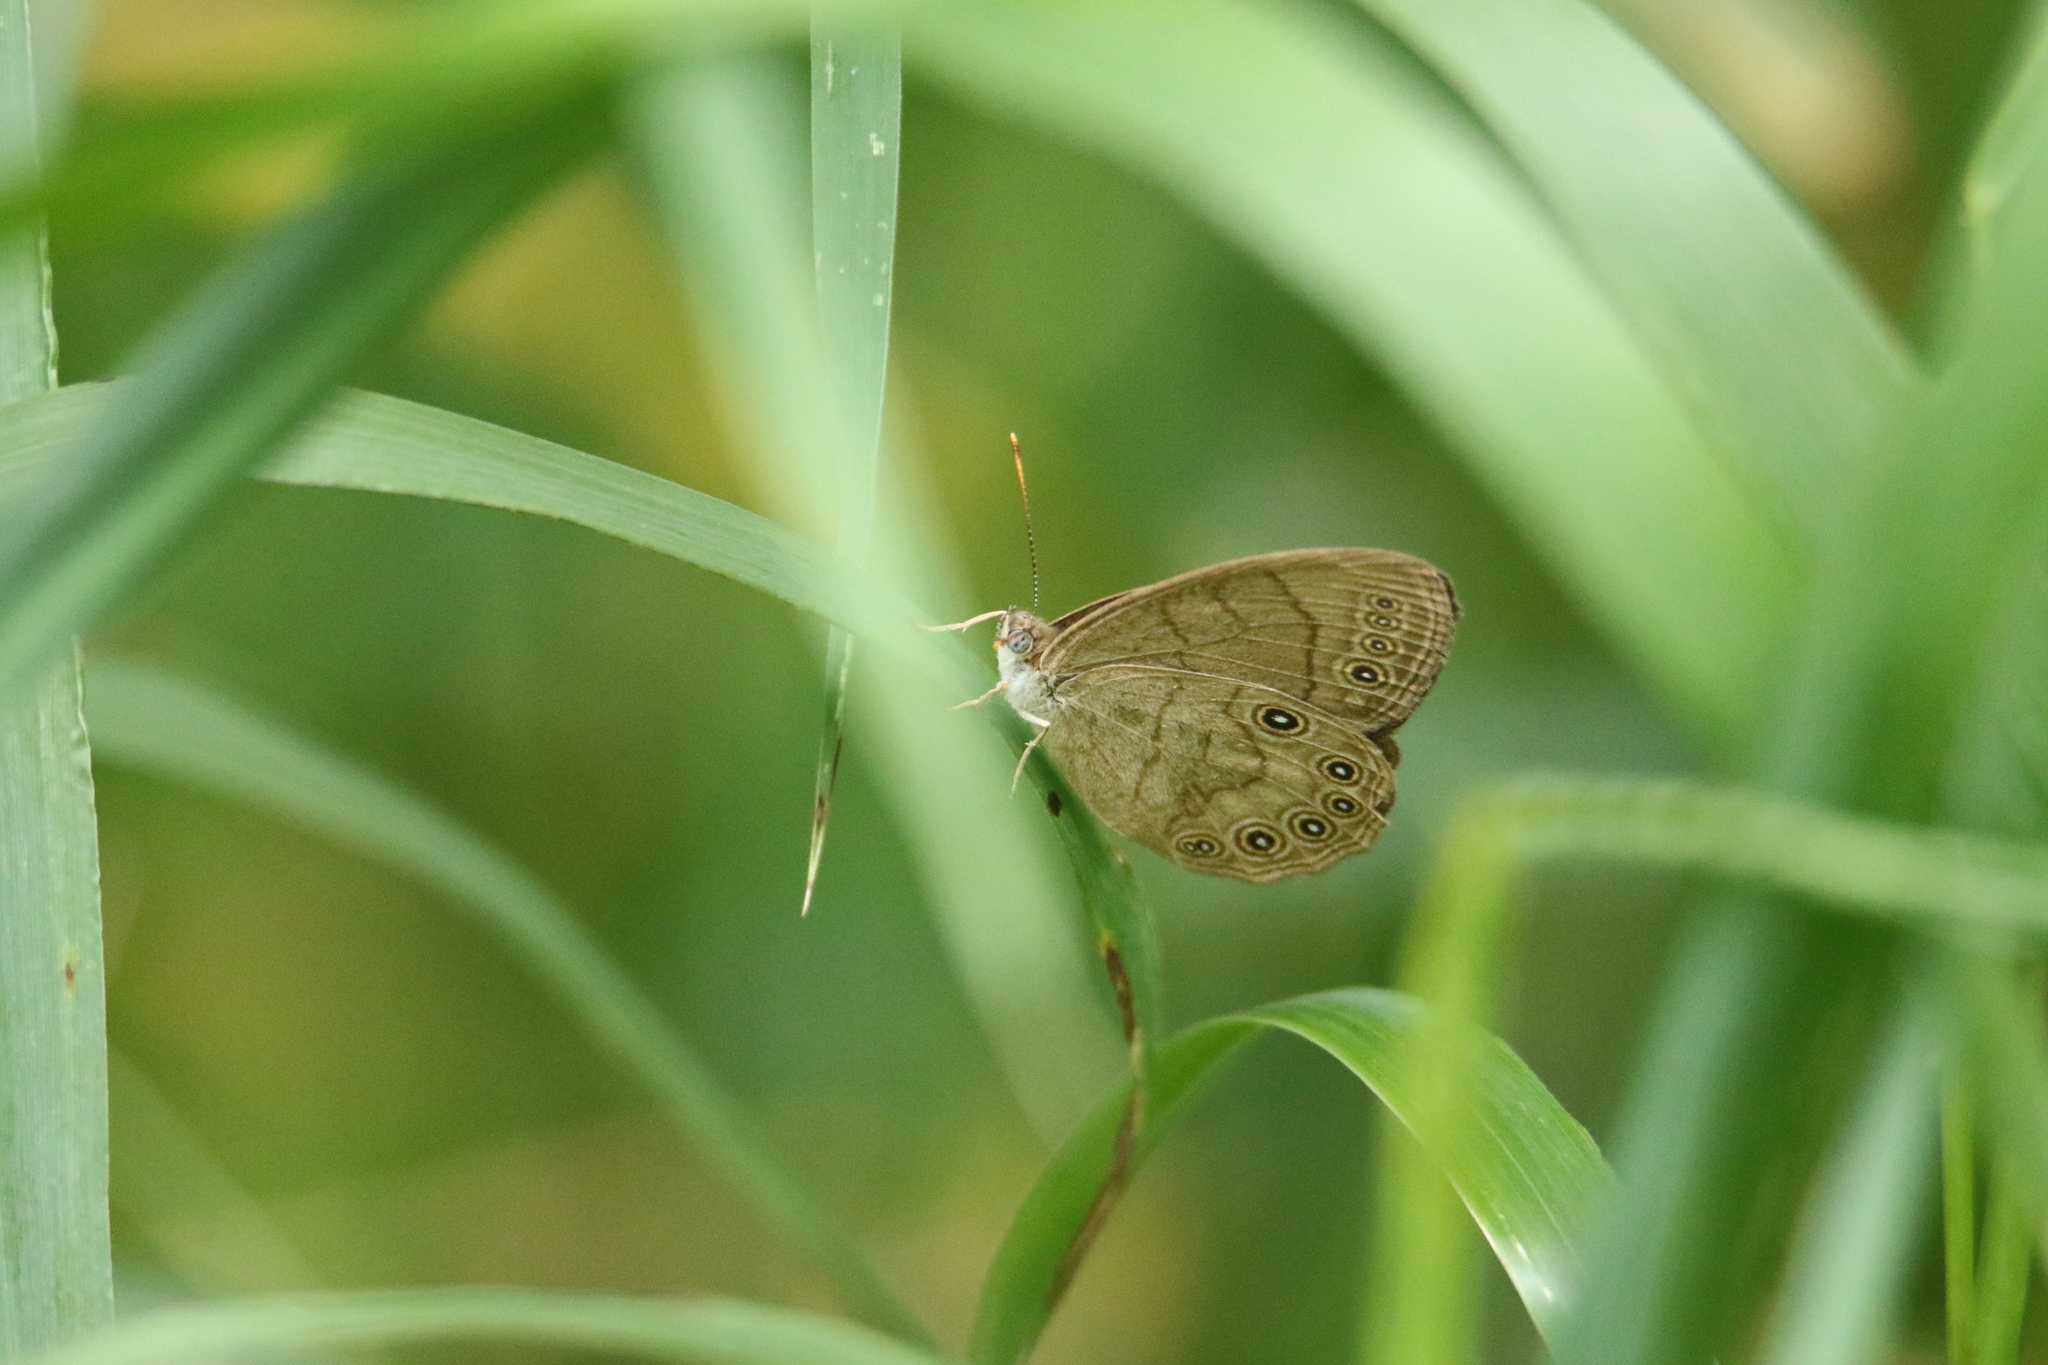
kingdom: Animalia
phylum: Arthropoda
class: Insecta
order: Lepidoptera
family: Nymphalidae
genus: Lethe
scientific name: Lethe eurydice
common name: Eyed brown
